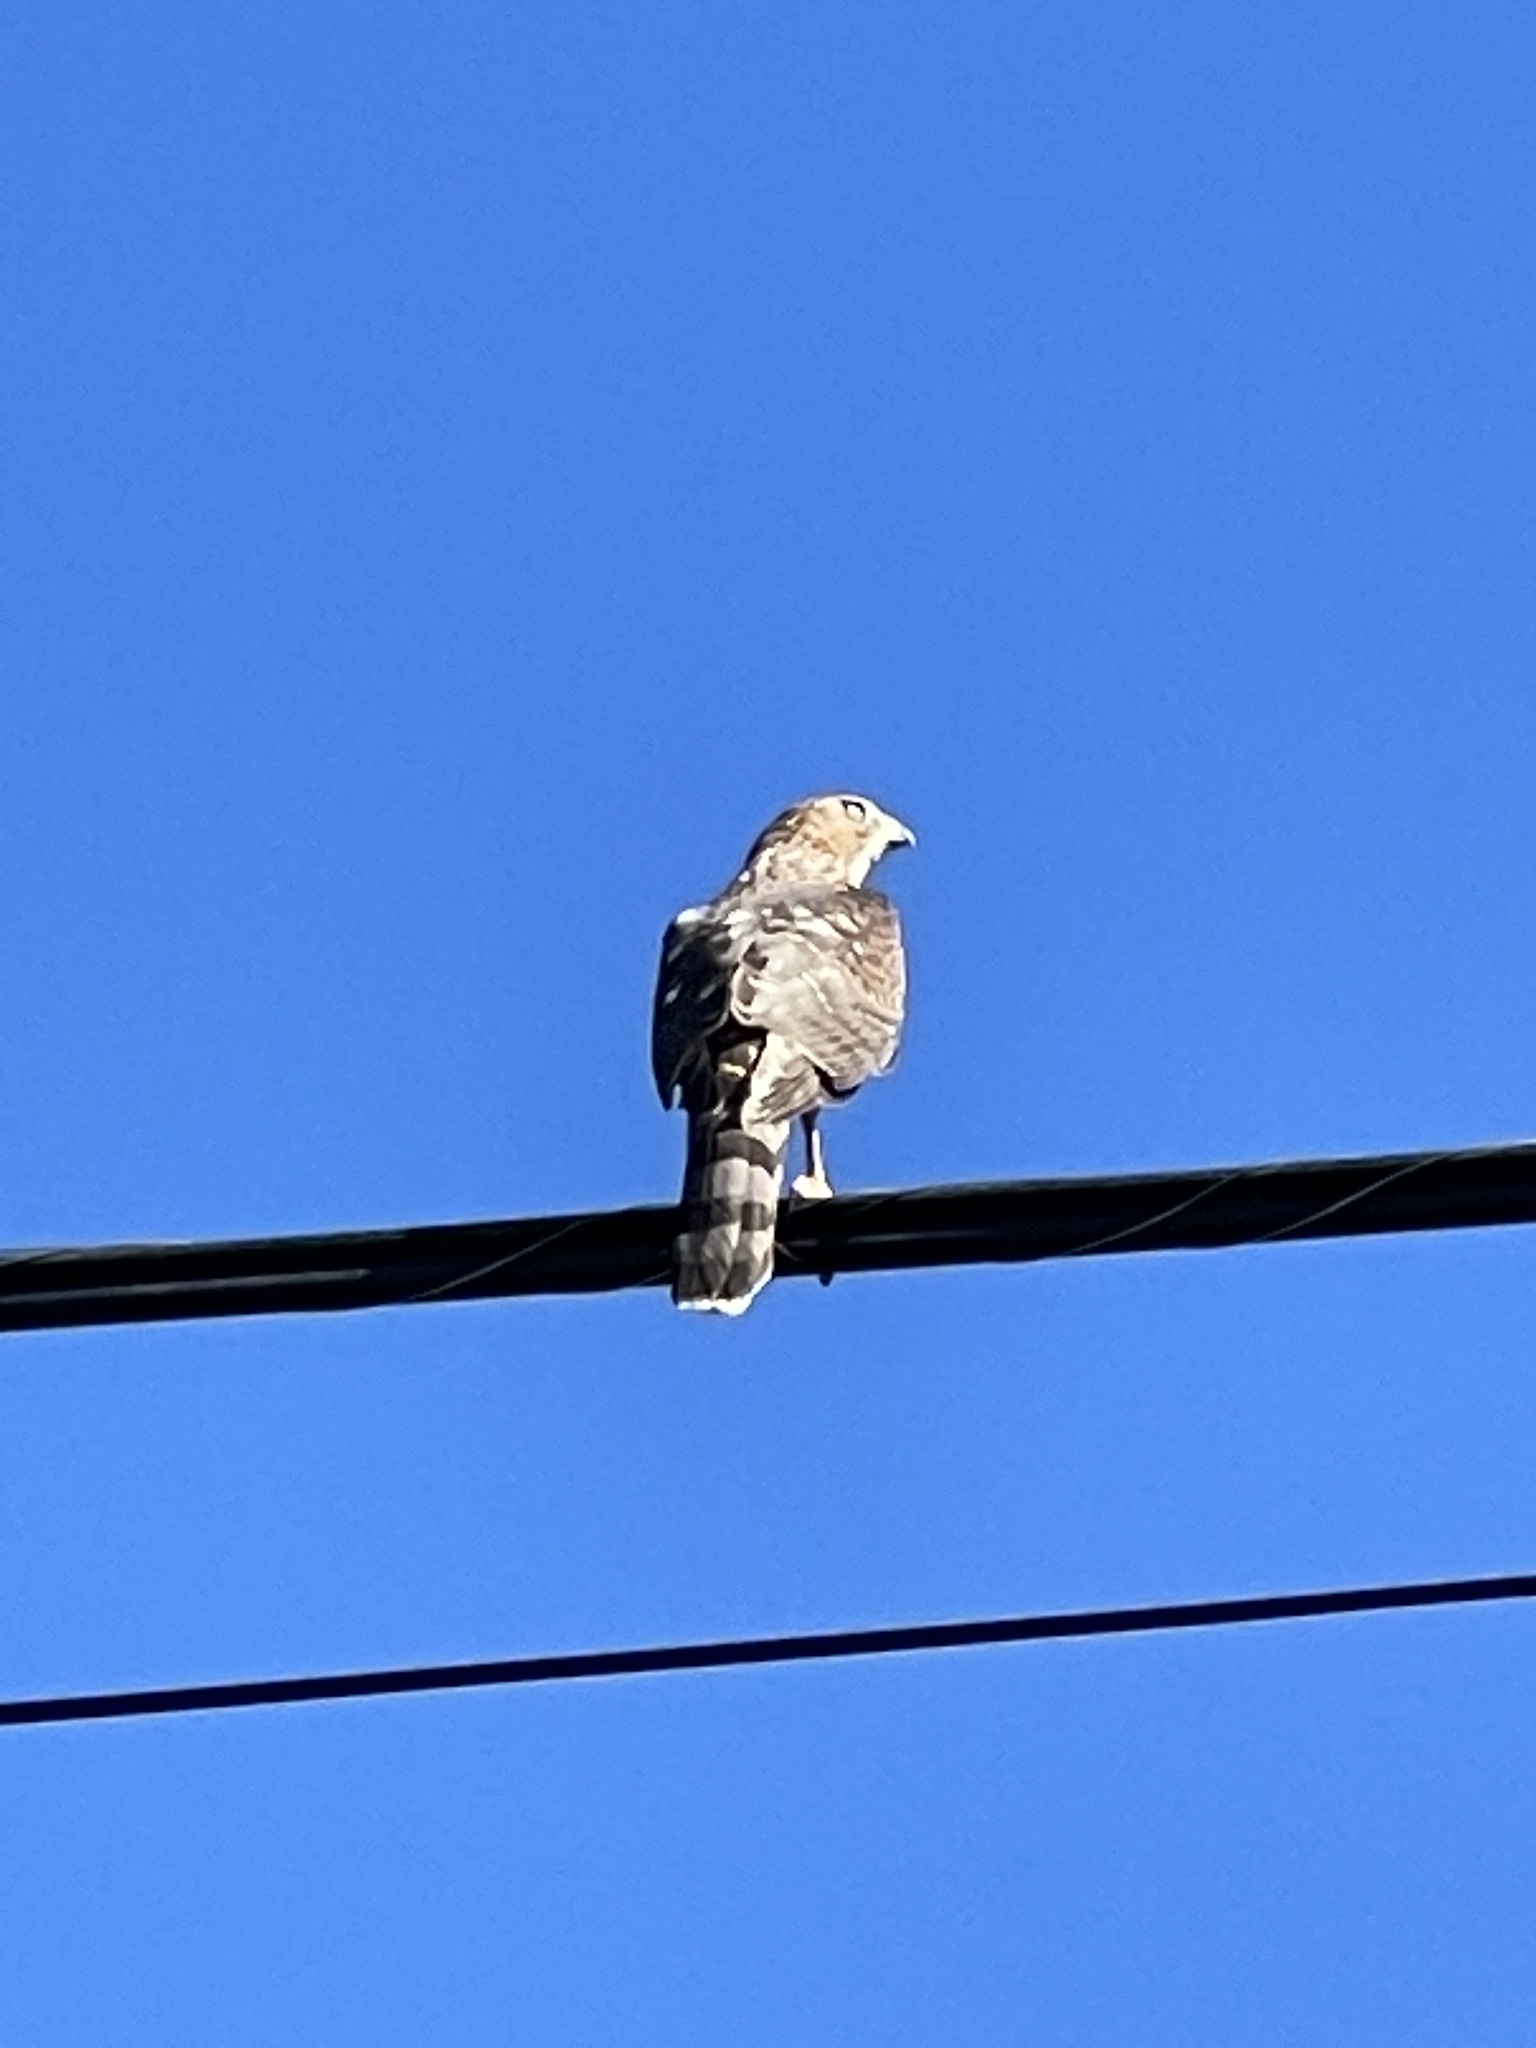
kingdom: Animalia
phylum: Chordata
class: Aves
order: Accipitriformes
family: Accipitridae
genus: Accipiter
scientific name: Accipiter cooperii
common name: Cooper's hawk
